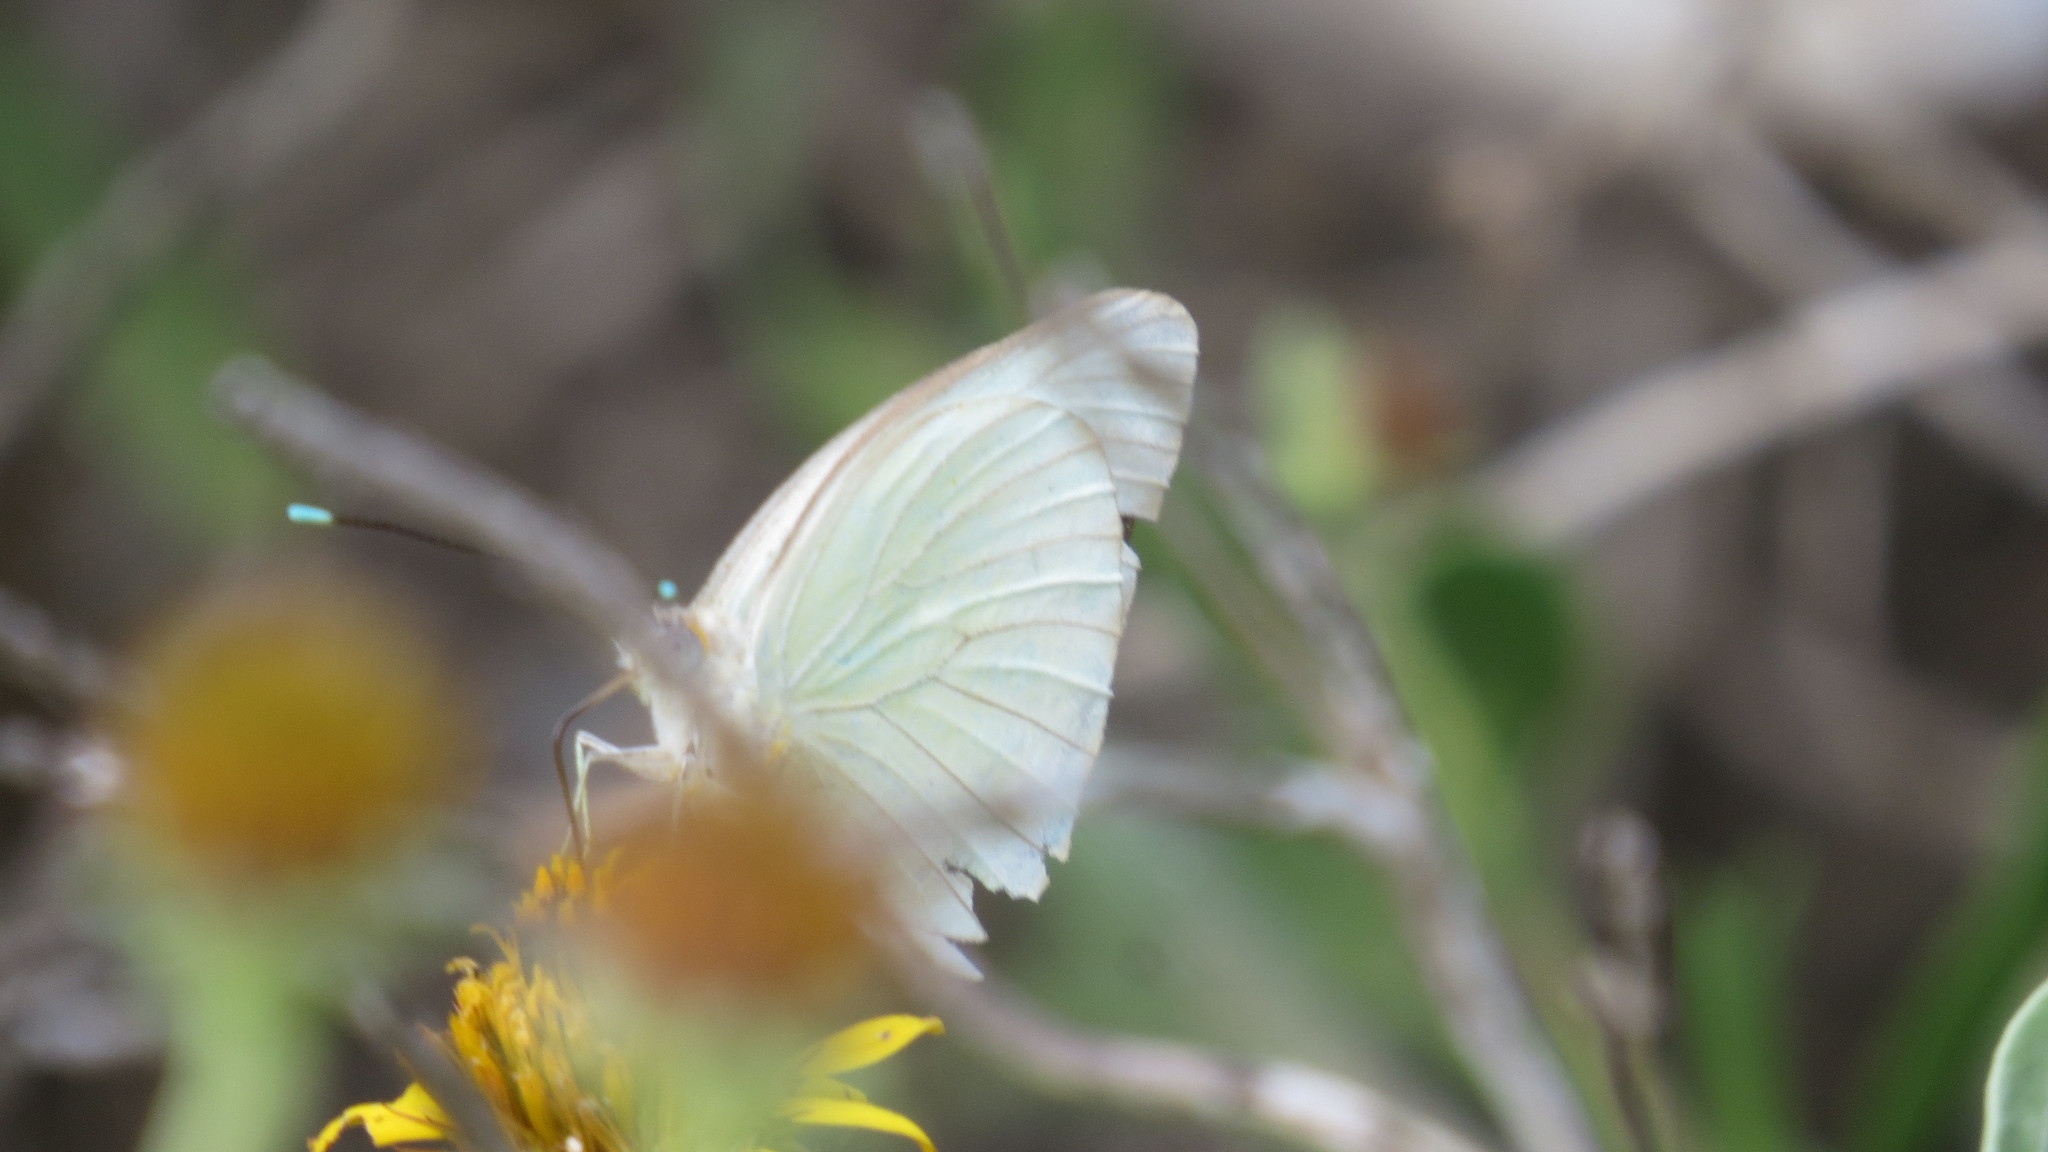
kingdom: Animalia
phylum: Arthropoda
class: Insecta
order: Lepidoptera
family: Pieridae
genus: Ascia
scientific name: Ascia monuste
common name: Great southern white
